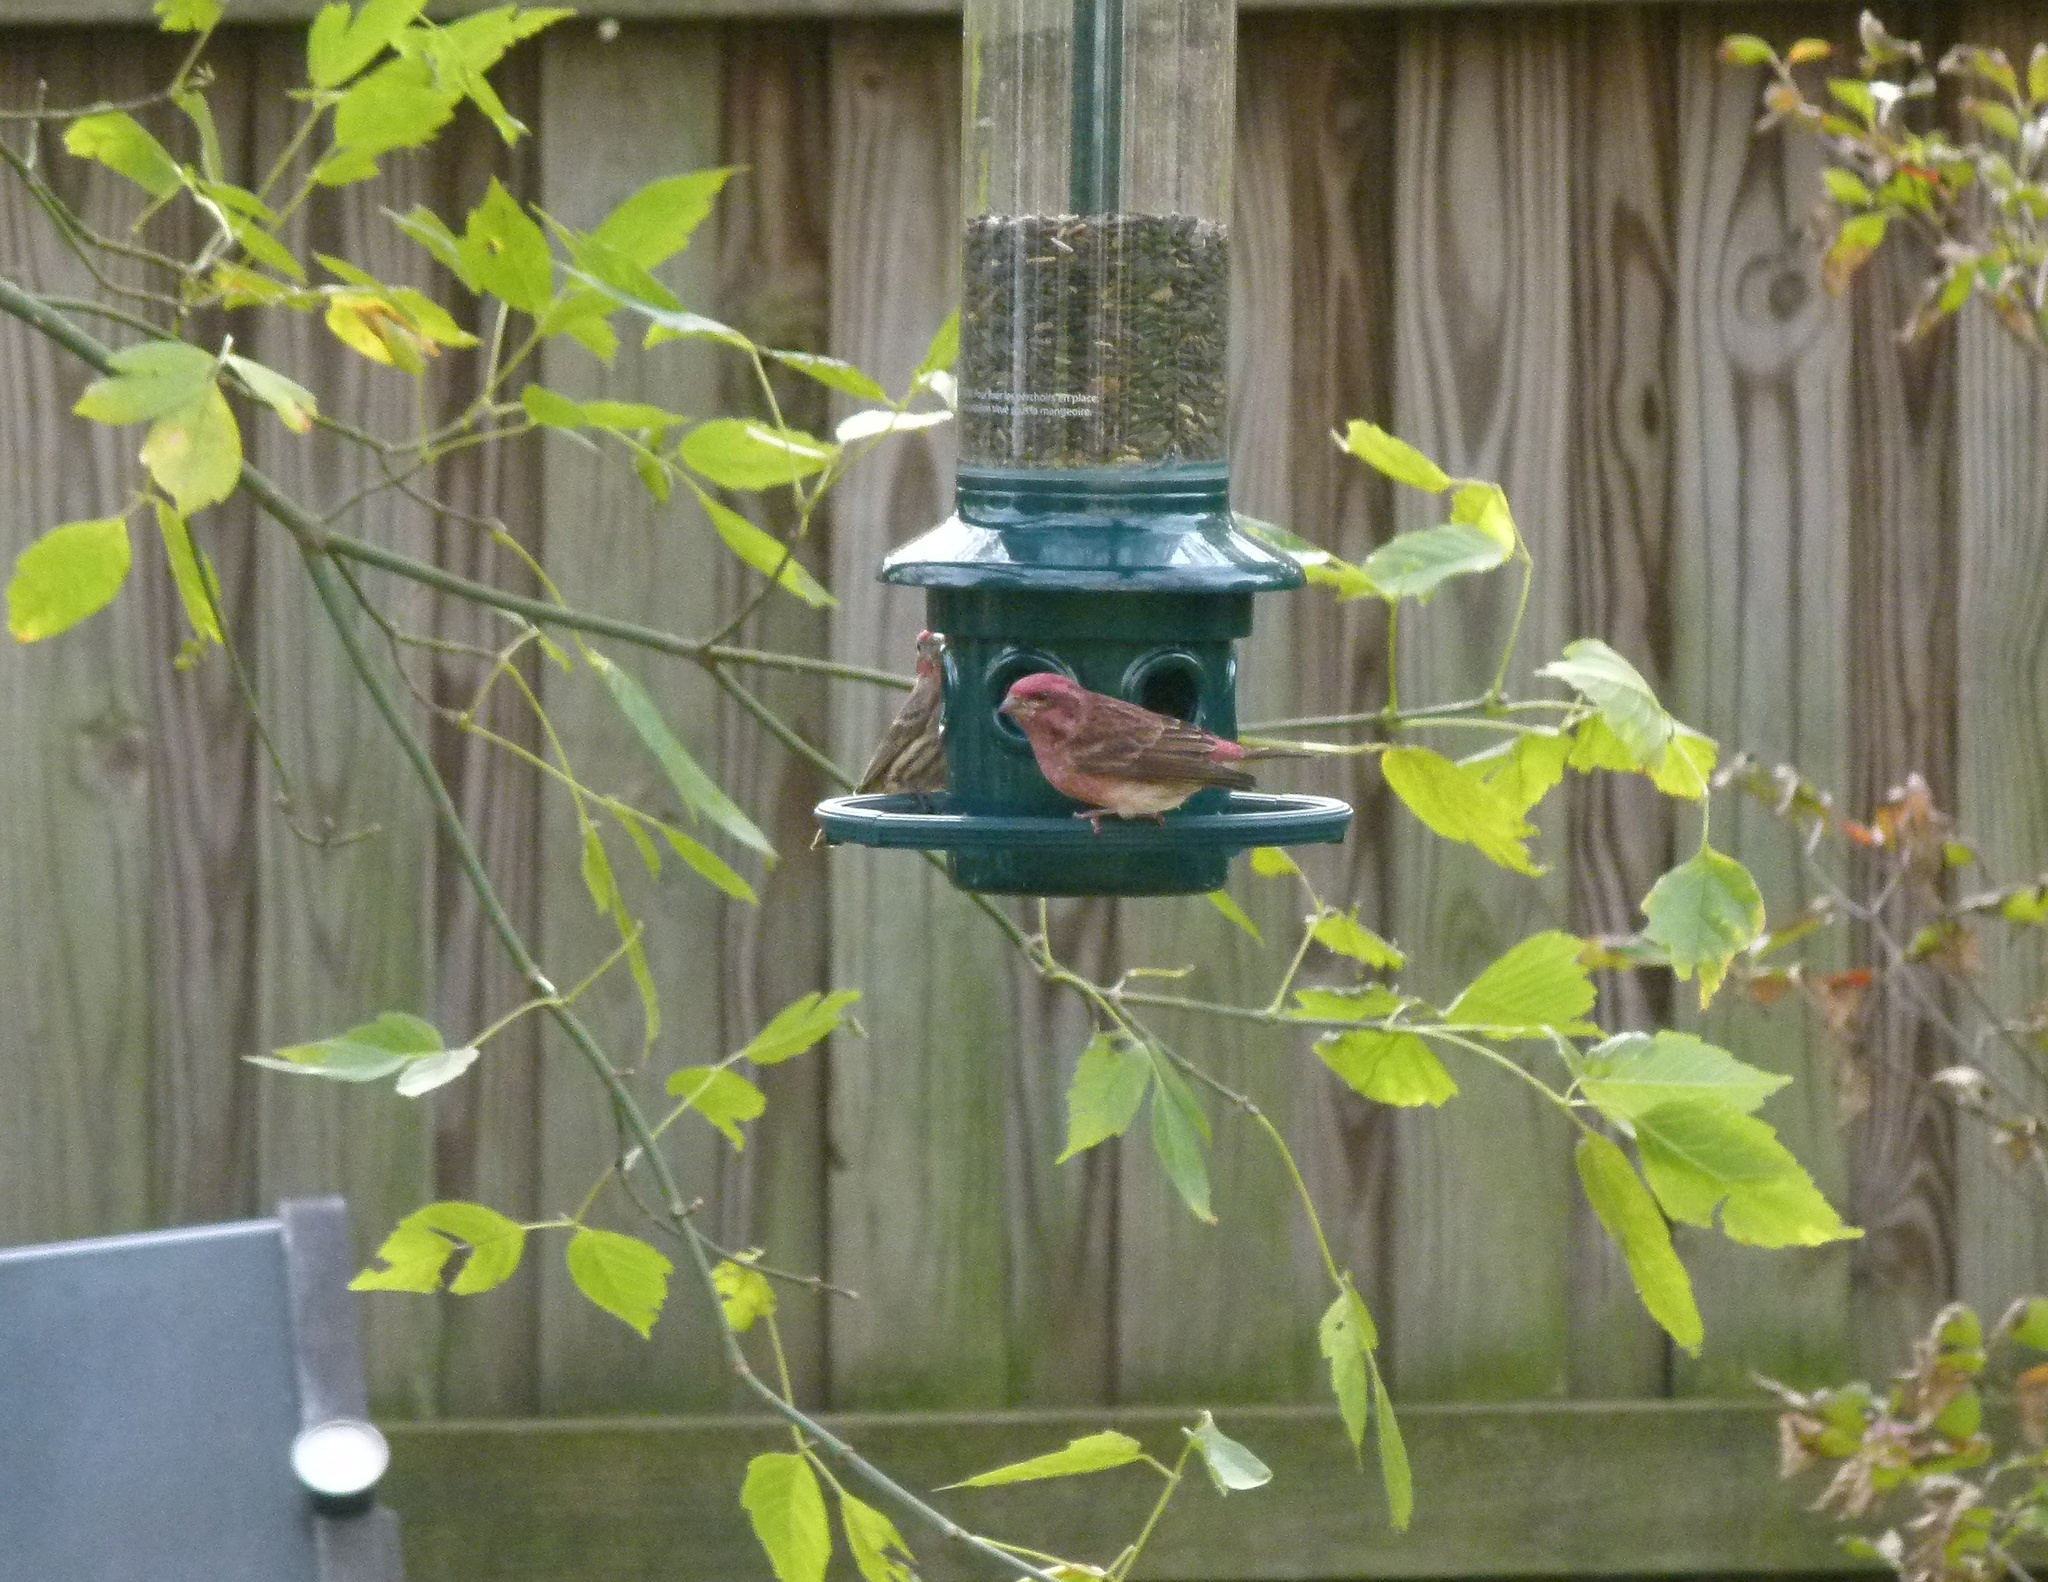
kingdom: Animalia
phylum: Chordata
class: Aves
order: Passeriformes
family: Fringillidae
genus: Haemorhous
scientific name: Haemorhous purpureus
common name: Purple finch
